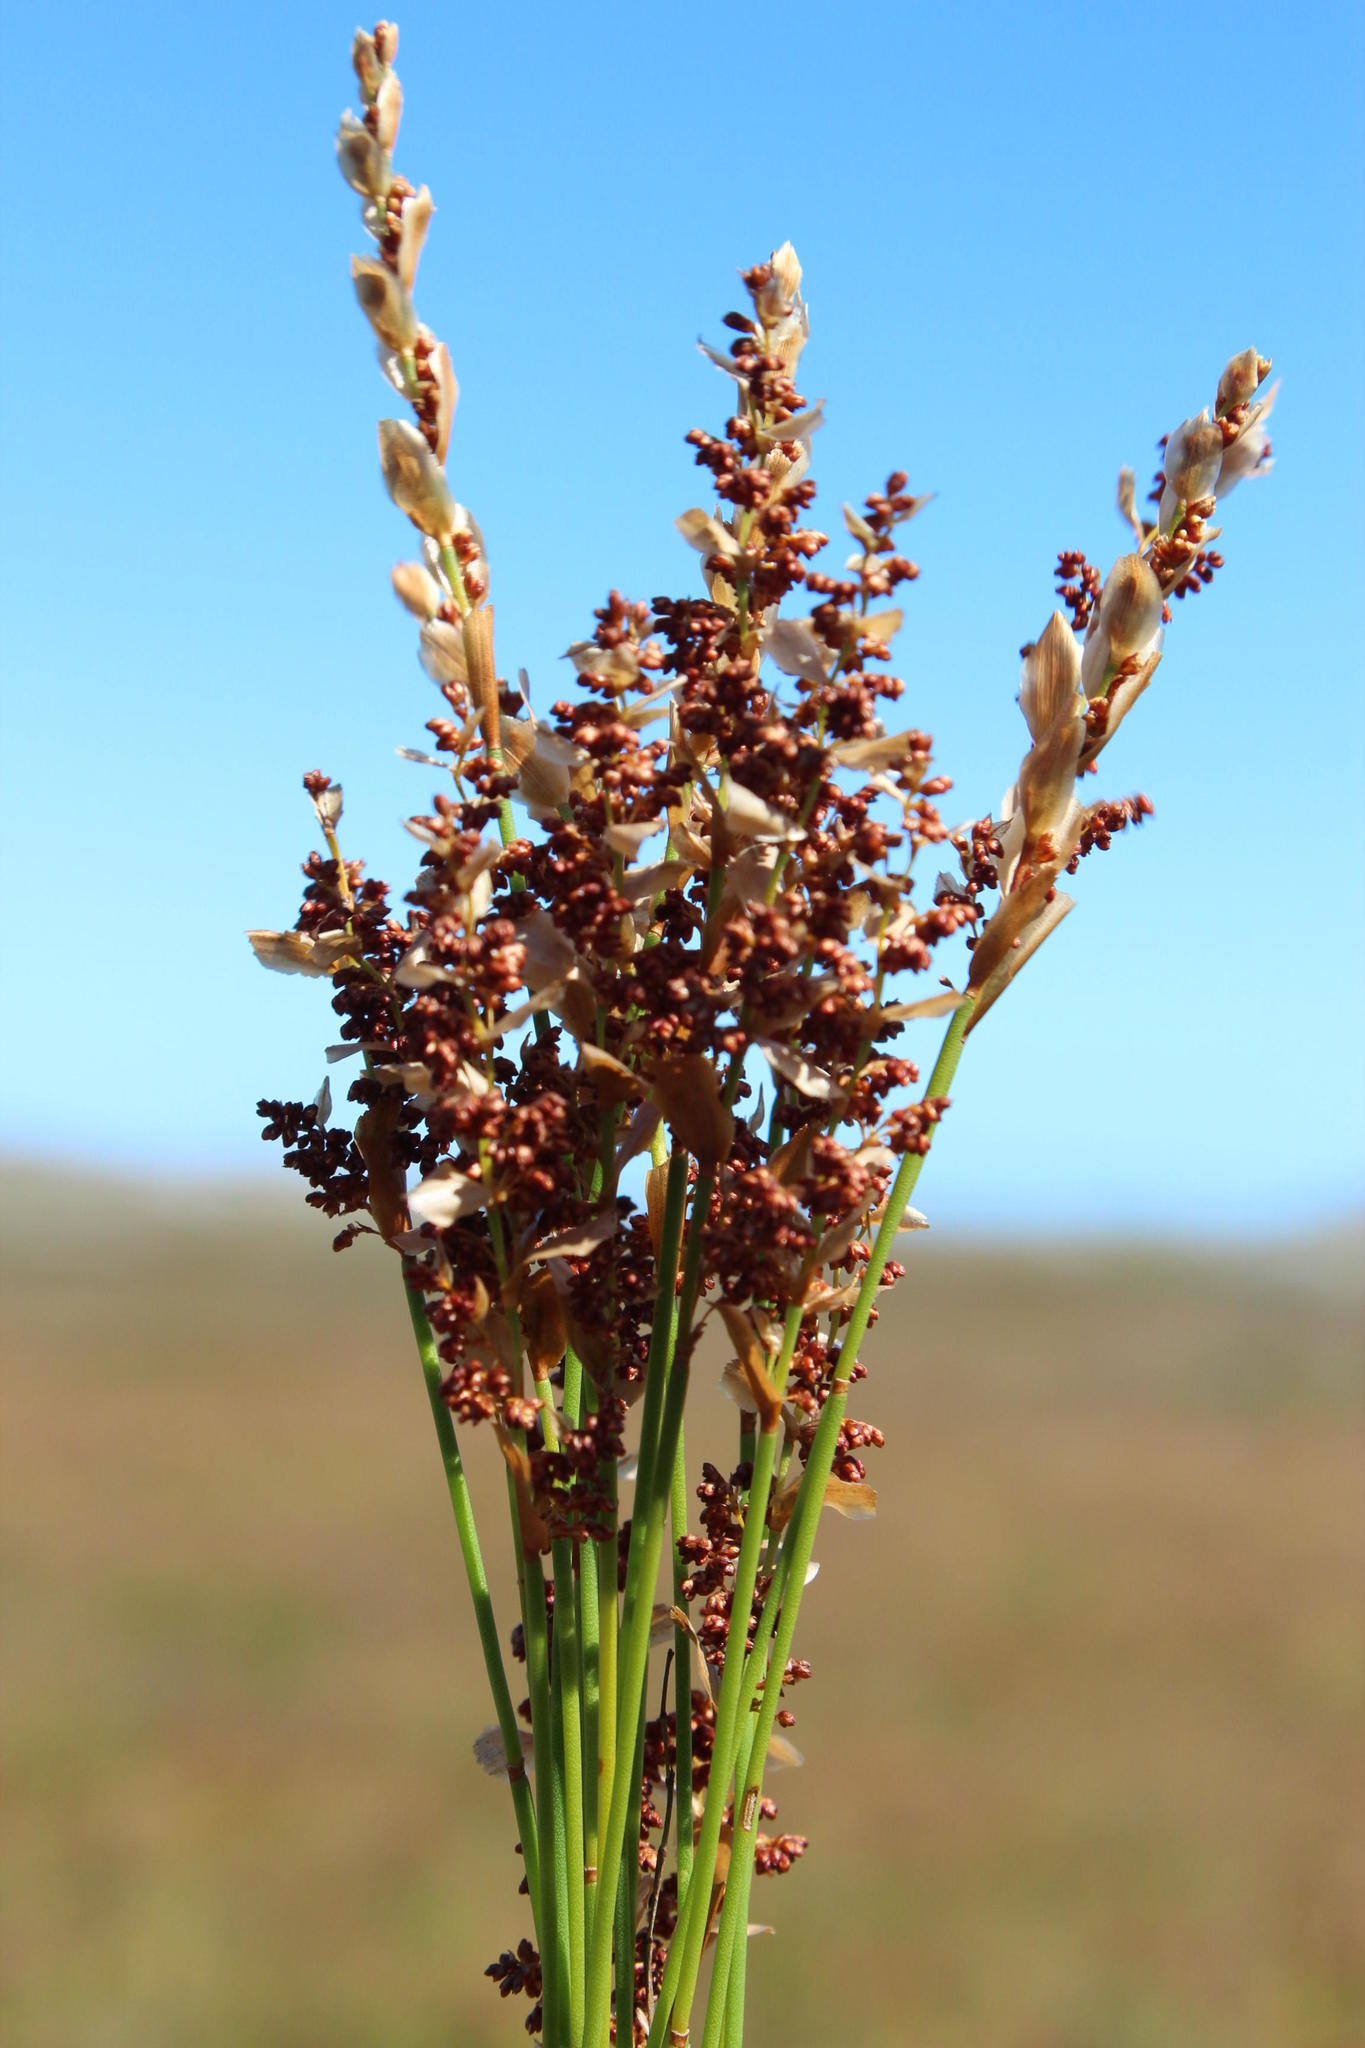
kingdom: Plantae
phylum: Tracheophyta
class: Liliopsida
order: Poales
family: Restionaceae
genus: Elegia
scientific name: Elegia filacea
